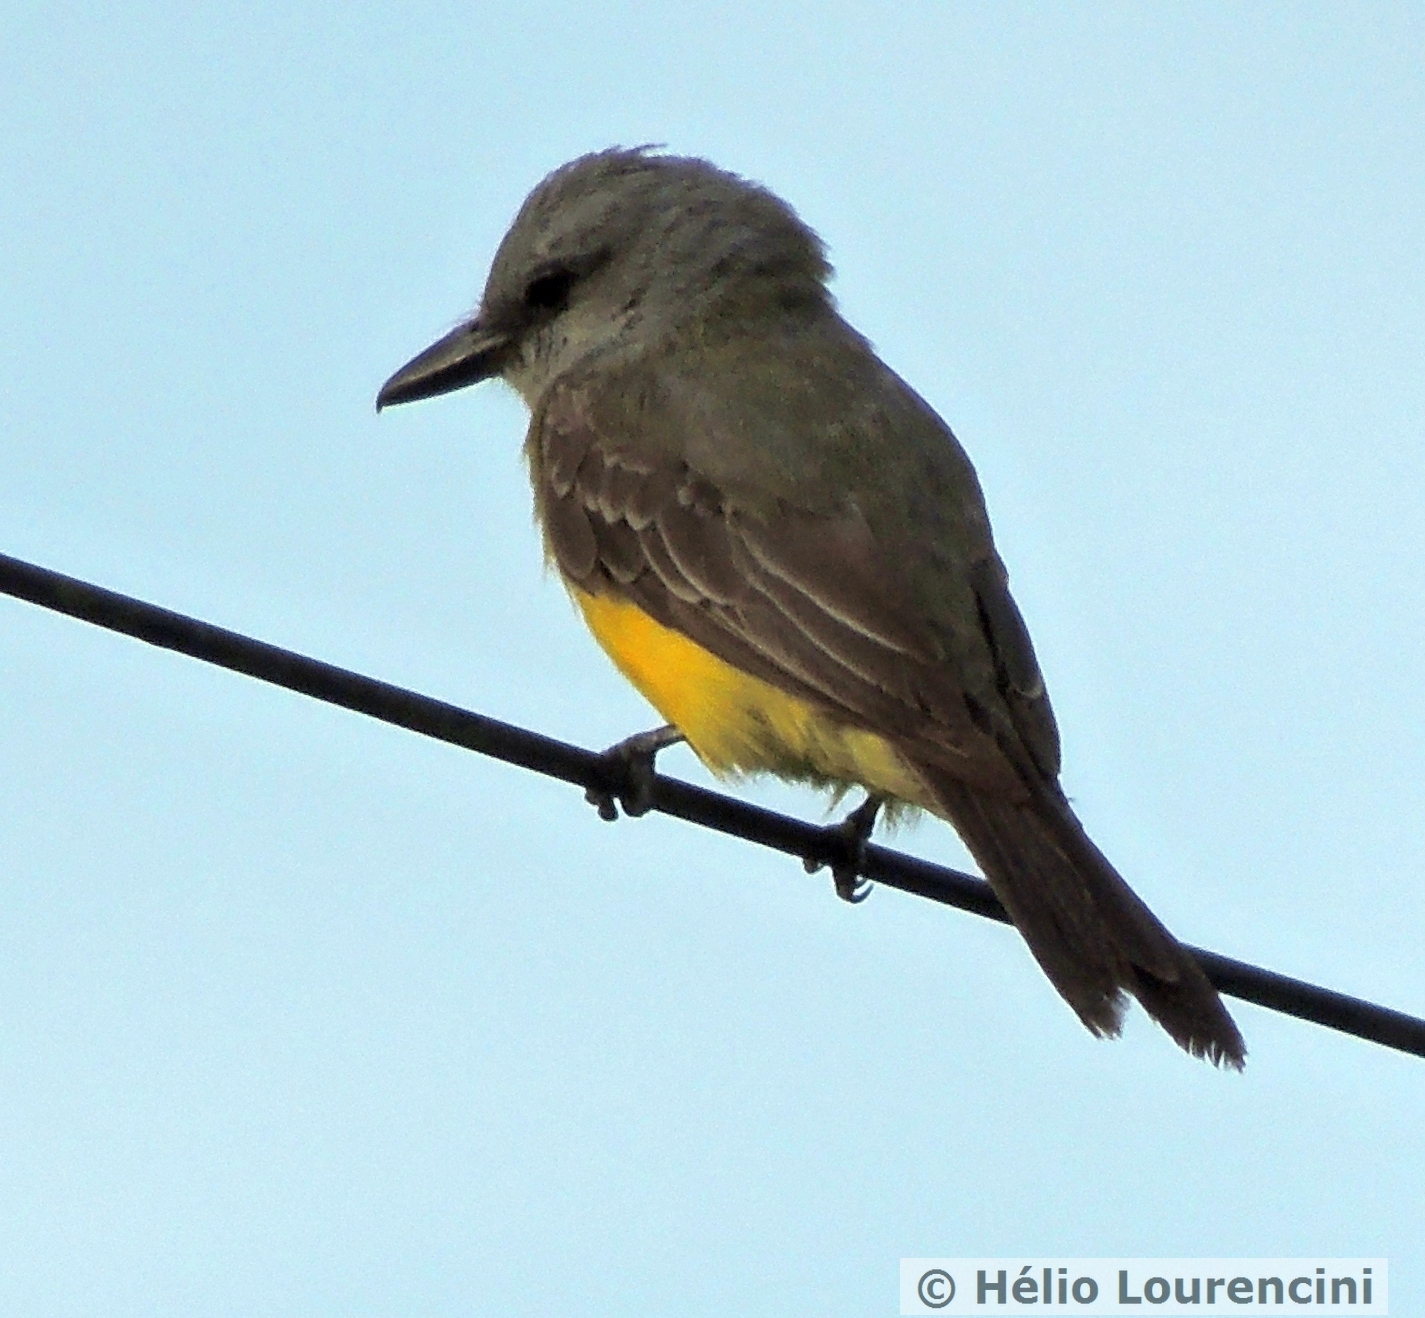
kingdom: Animalia
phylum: Chordata
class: Aves
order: Passeriformes
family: Tyrannidae
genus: Tyrannus
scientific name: Tyrannus melancholicus
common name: Tropical kingbird
